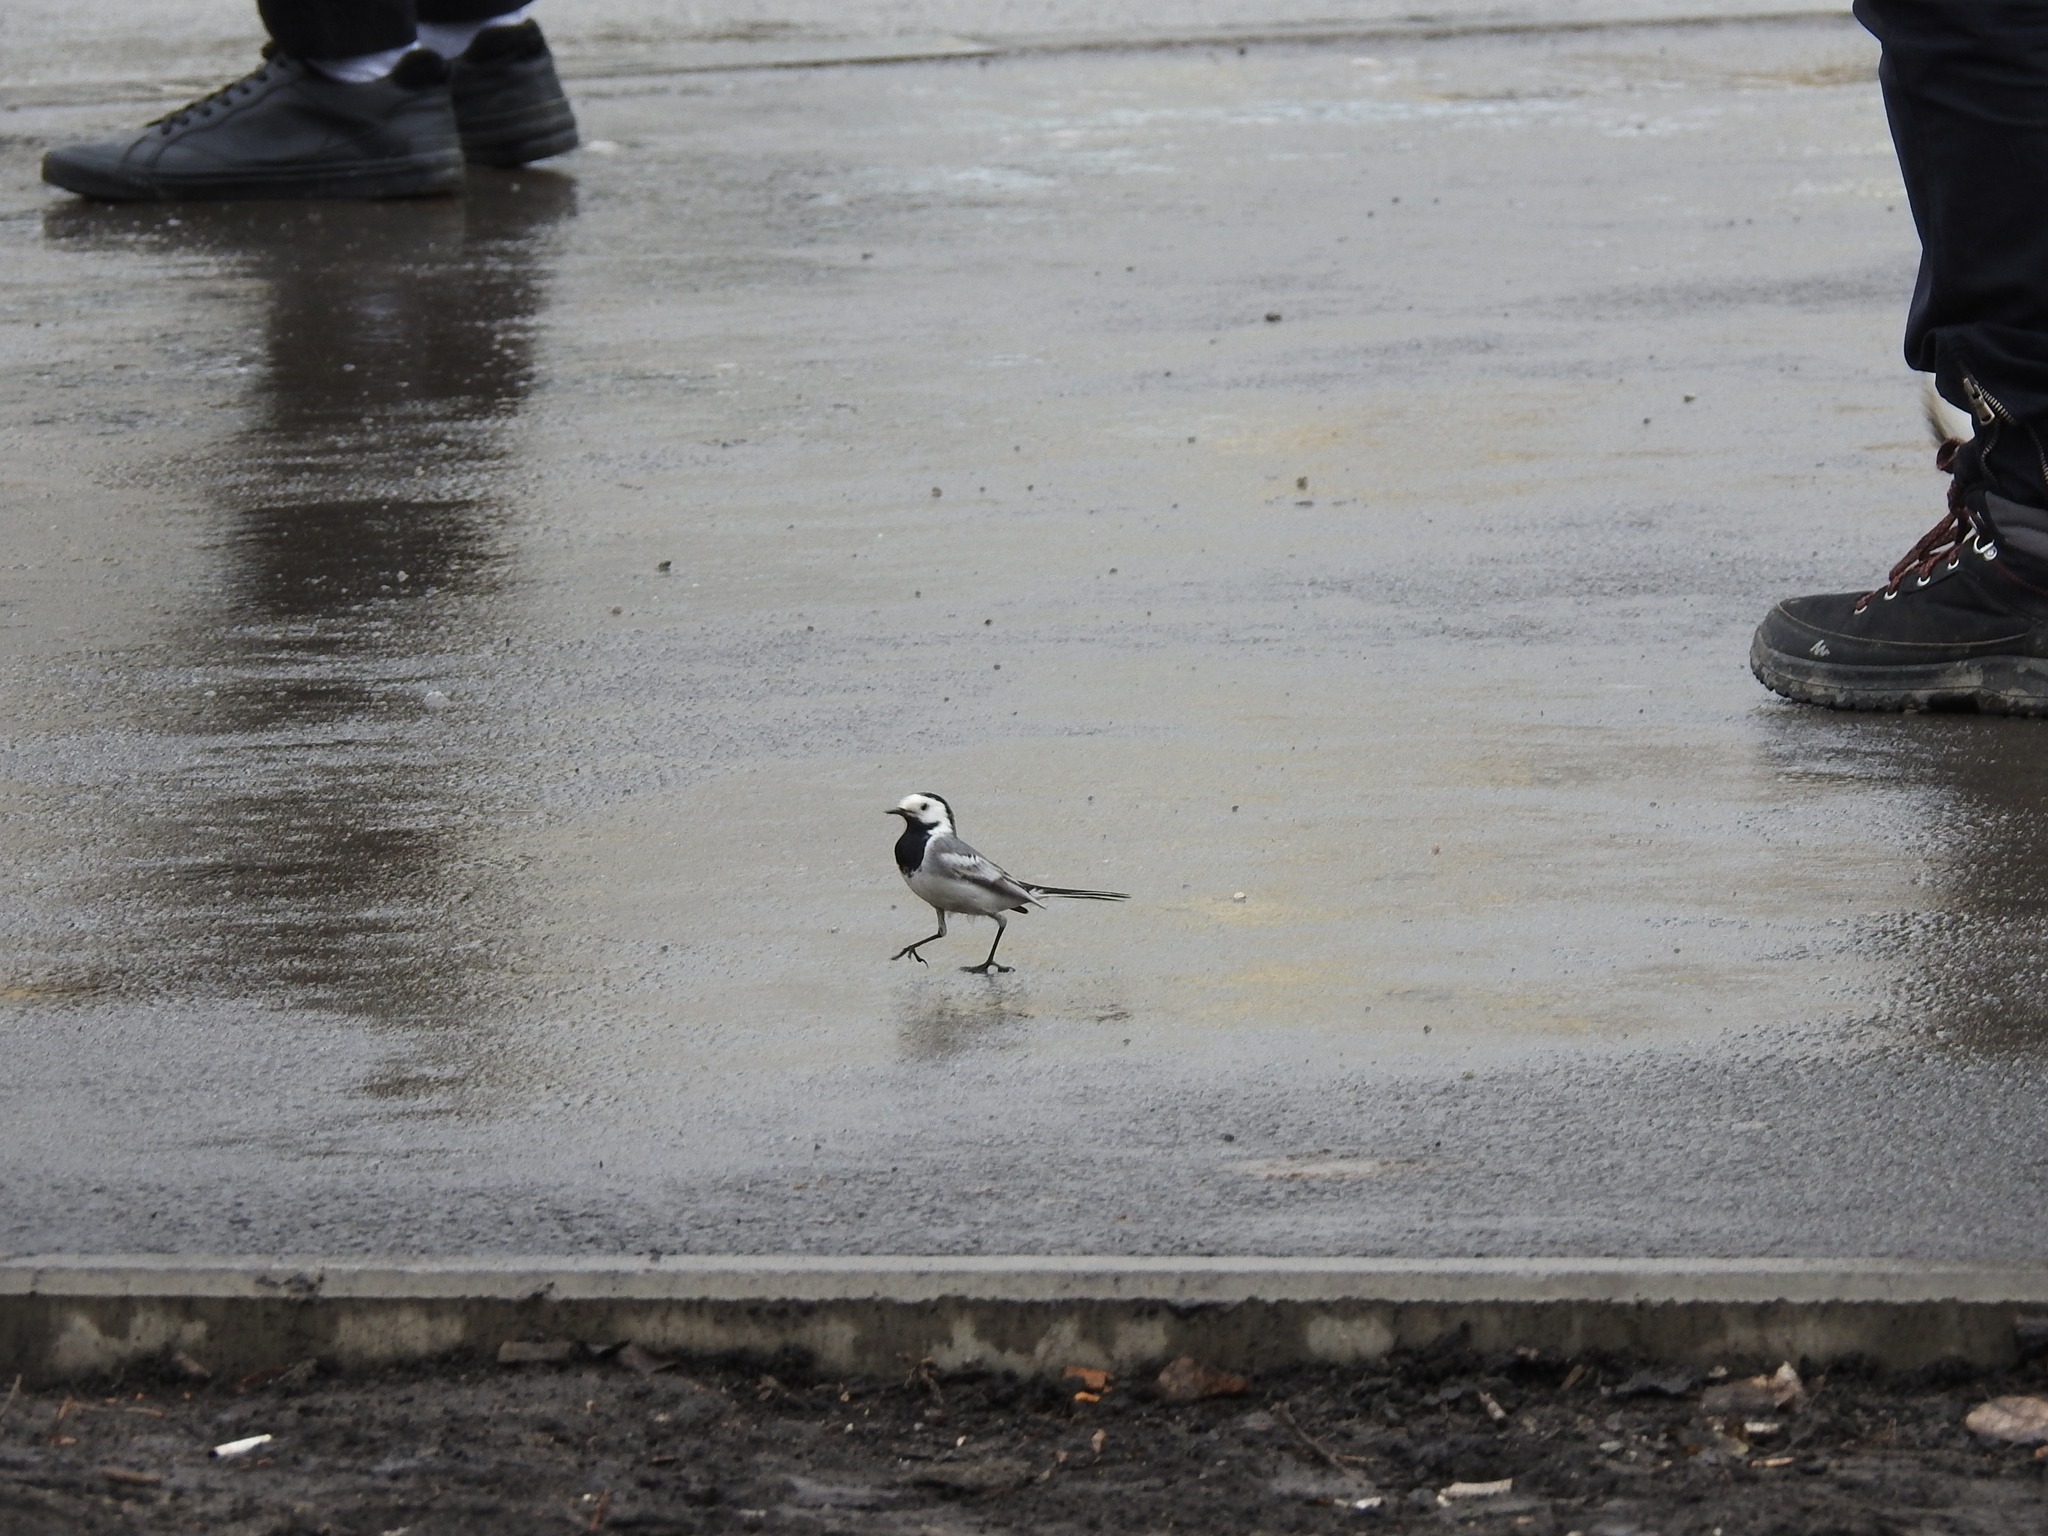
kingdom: Animalia
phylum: Chordata
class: Aves
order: Passeriformes
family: Motacillidae
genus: Motacilla
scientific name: Motacilla alba
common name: White wagtail
